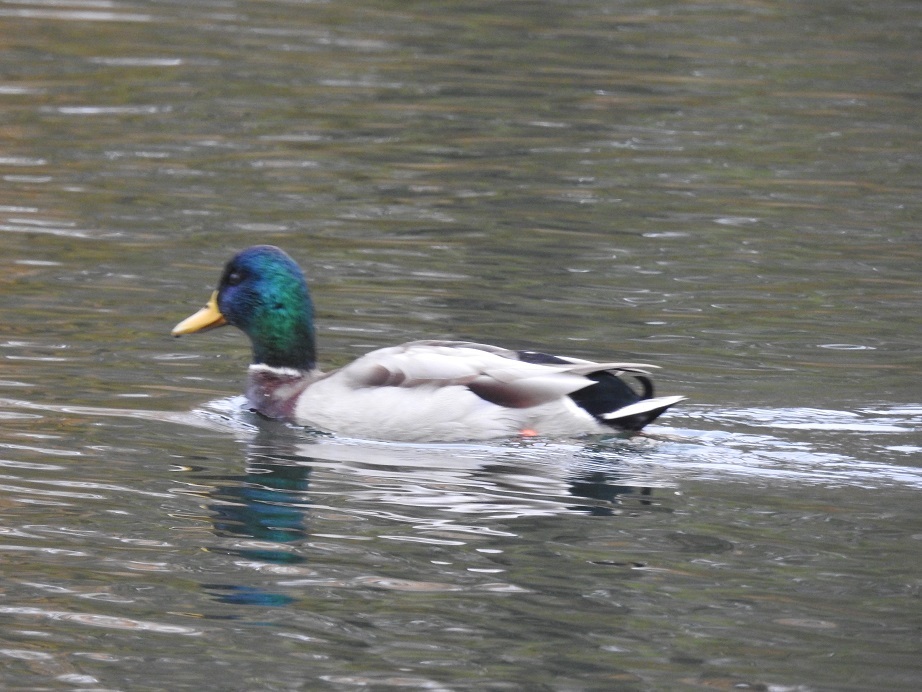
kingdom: Animalia
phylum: Chordata
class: Aves
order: Anseriformes
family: Anatidae
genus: Anas
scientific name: Anas platyrhynchos
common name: Mallard
